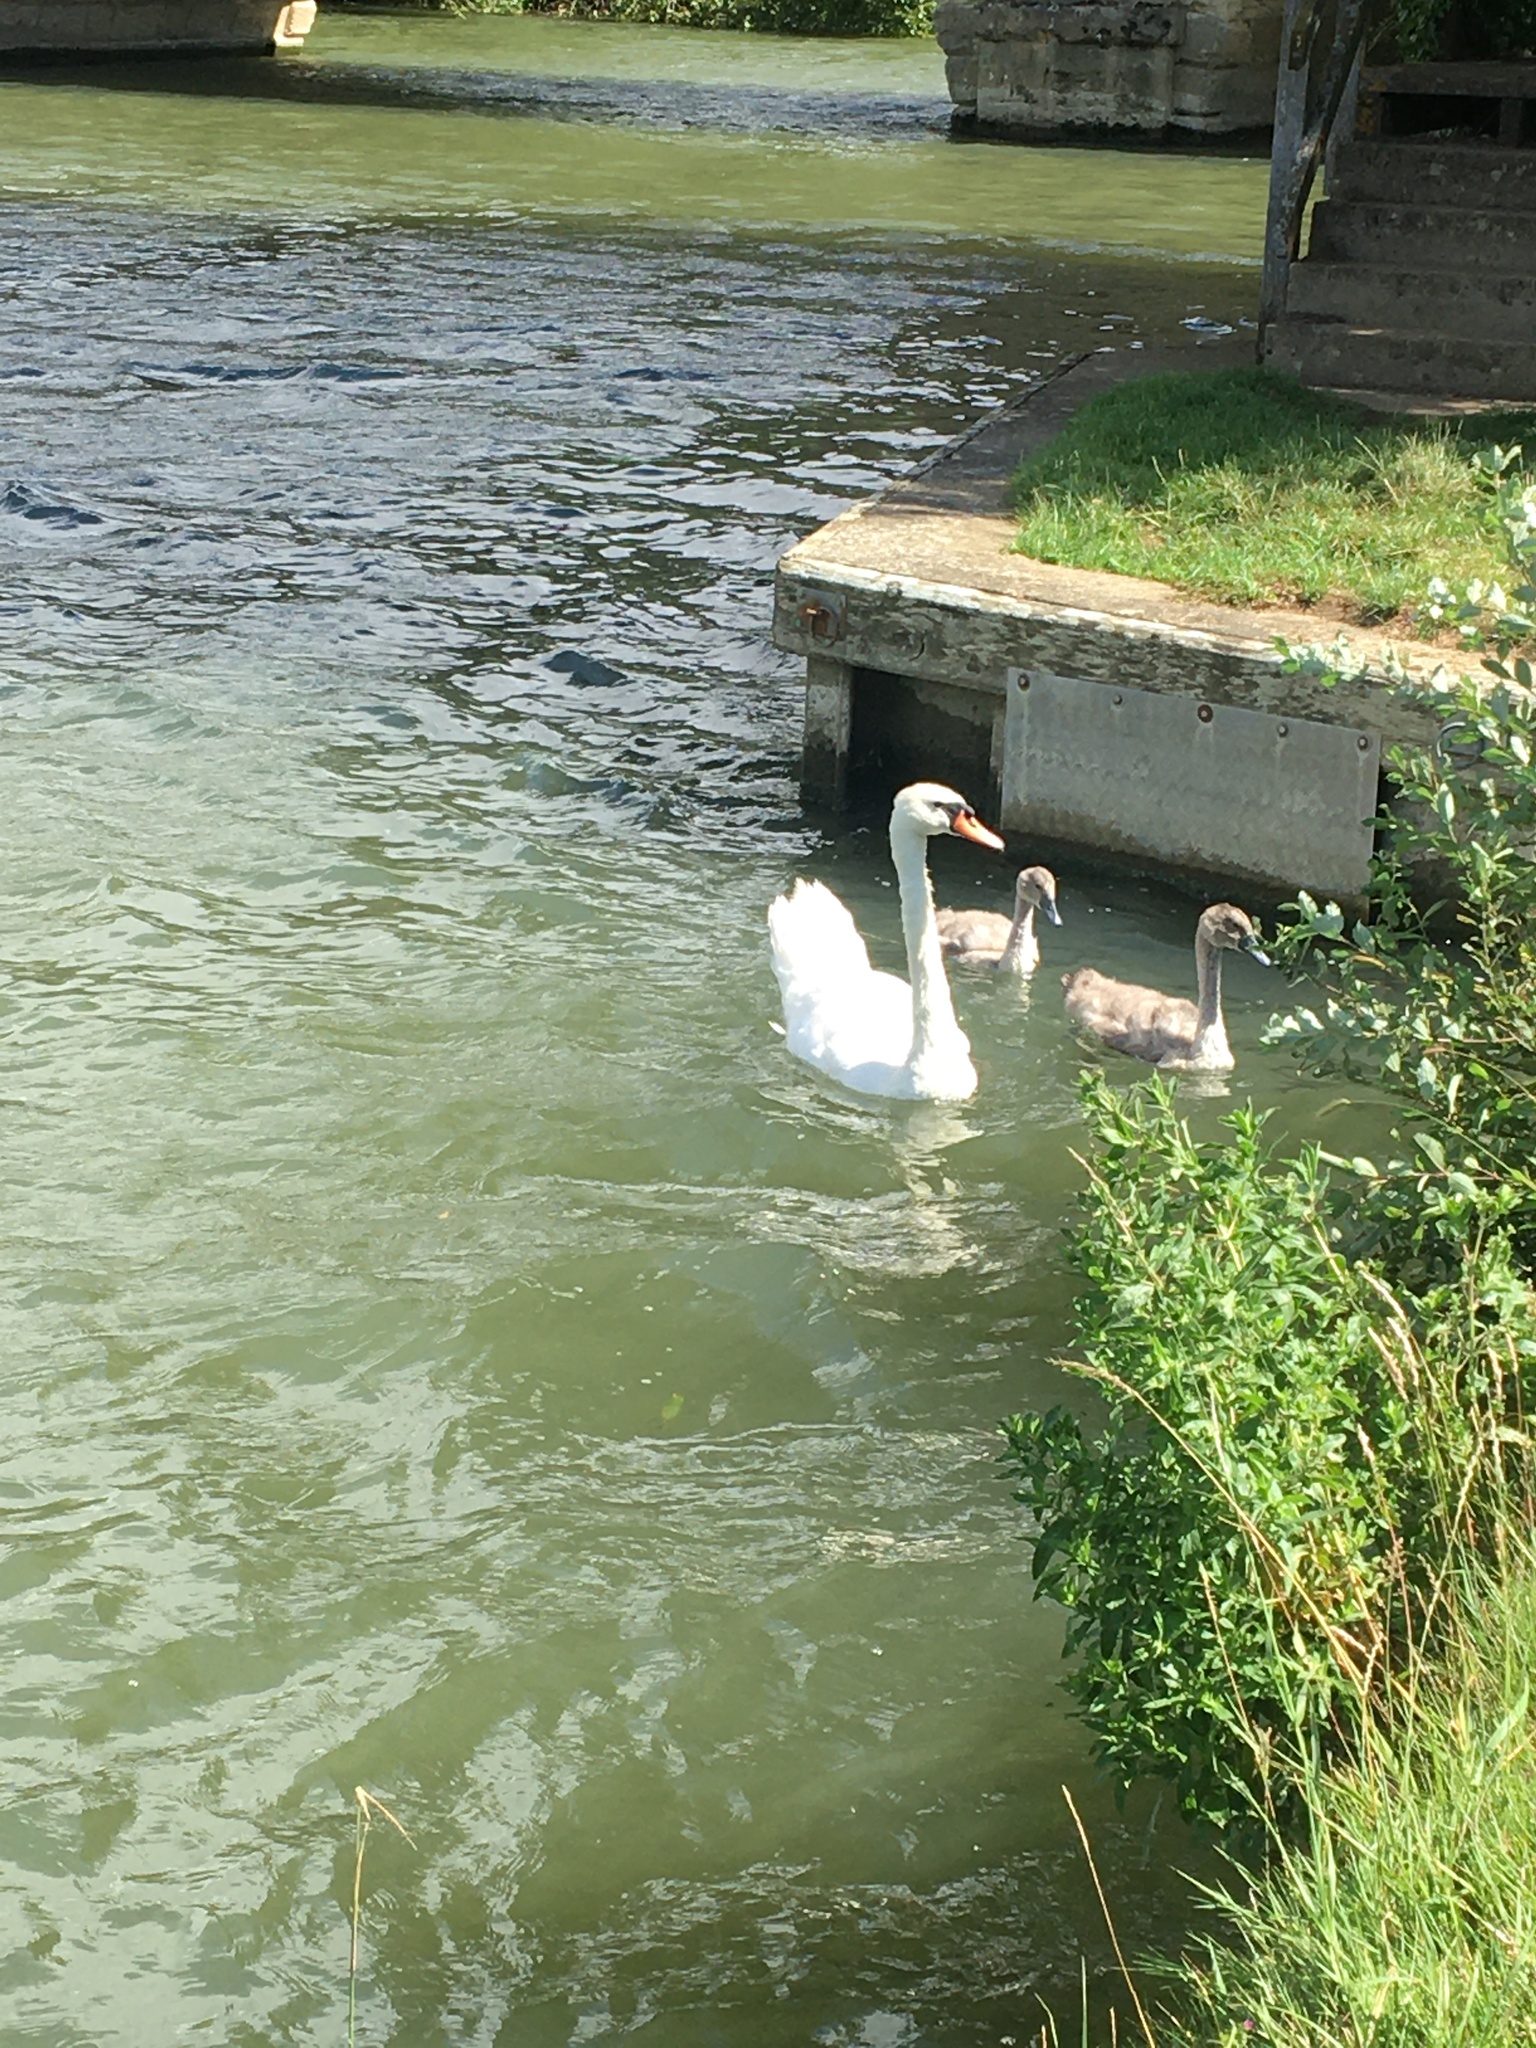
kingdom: Animalia
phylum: Chordata
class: Aves
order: Anseriformes
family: Anatidae
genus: Cygnus
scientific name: Cygnus olor
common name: Mute swan
